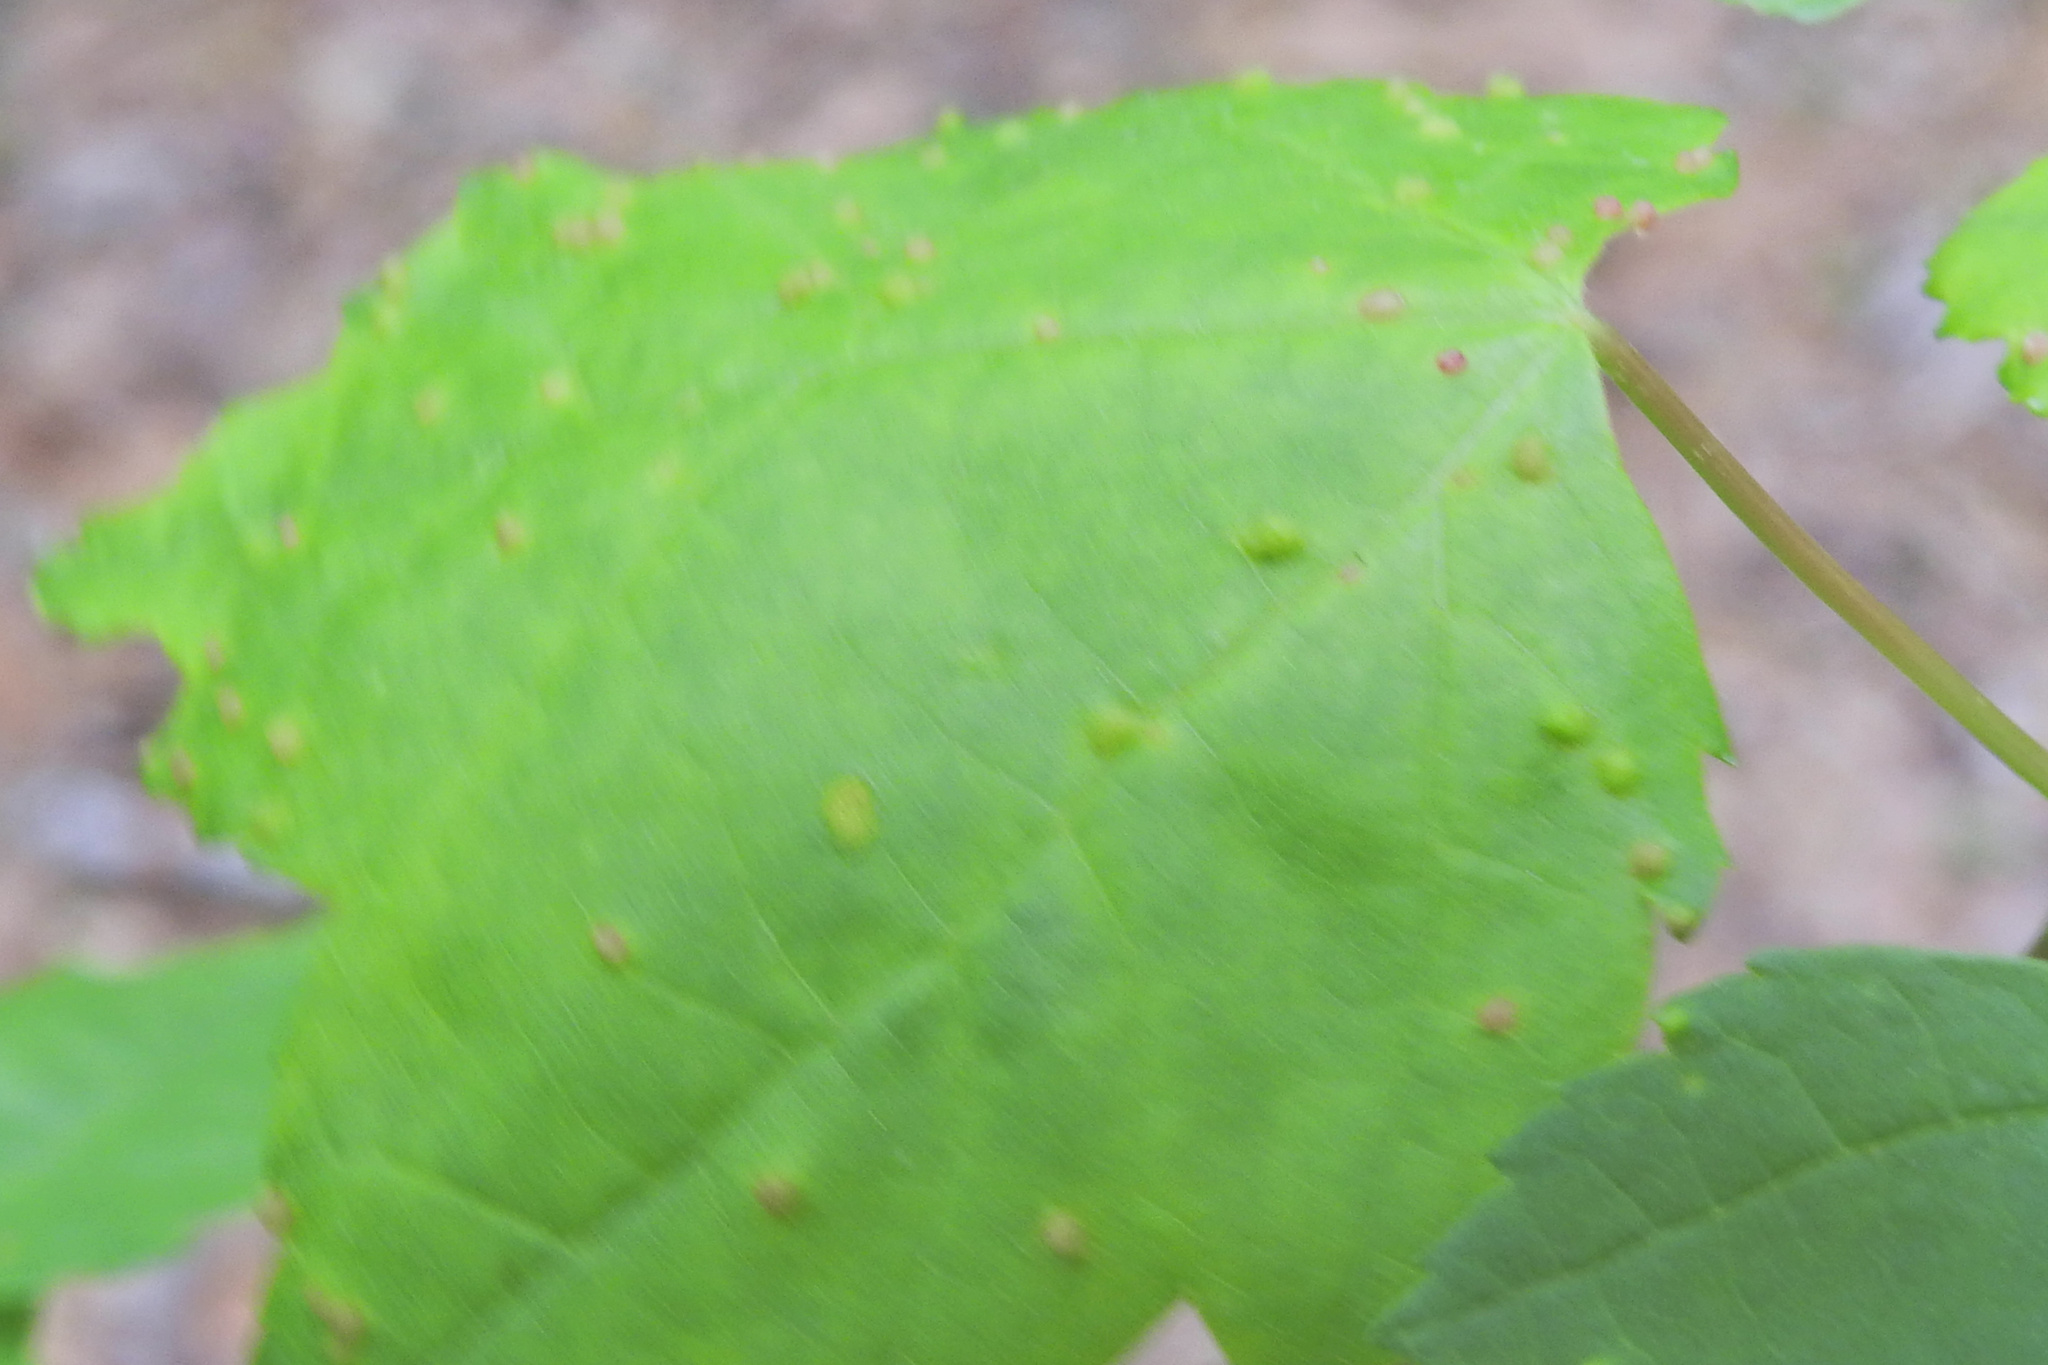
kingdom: Animalia
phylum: Arthropoda
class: Arachnida
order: Trombidiformes
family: Eriophyidae
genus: Vasates
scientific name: Vasates quadripedes
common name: Maple bladder gall mite
